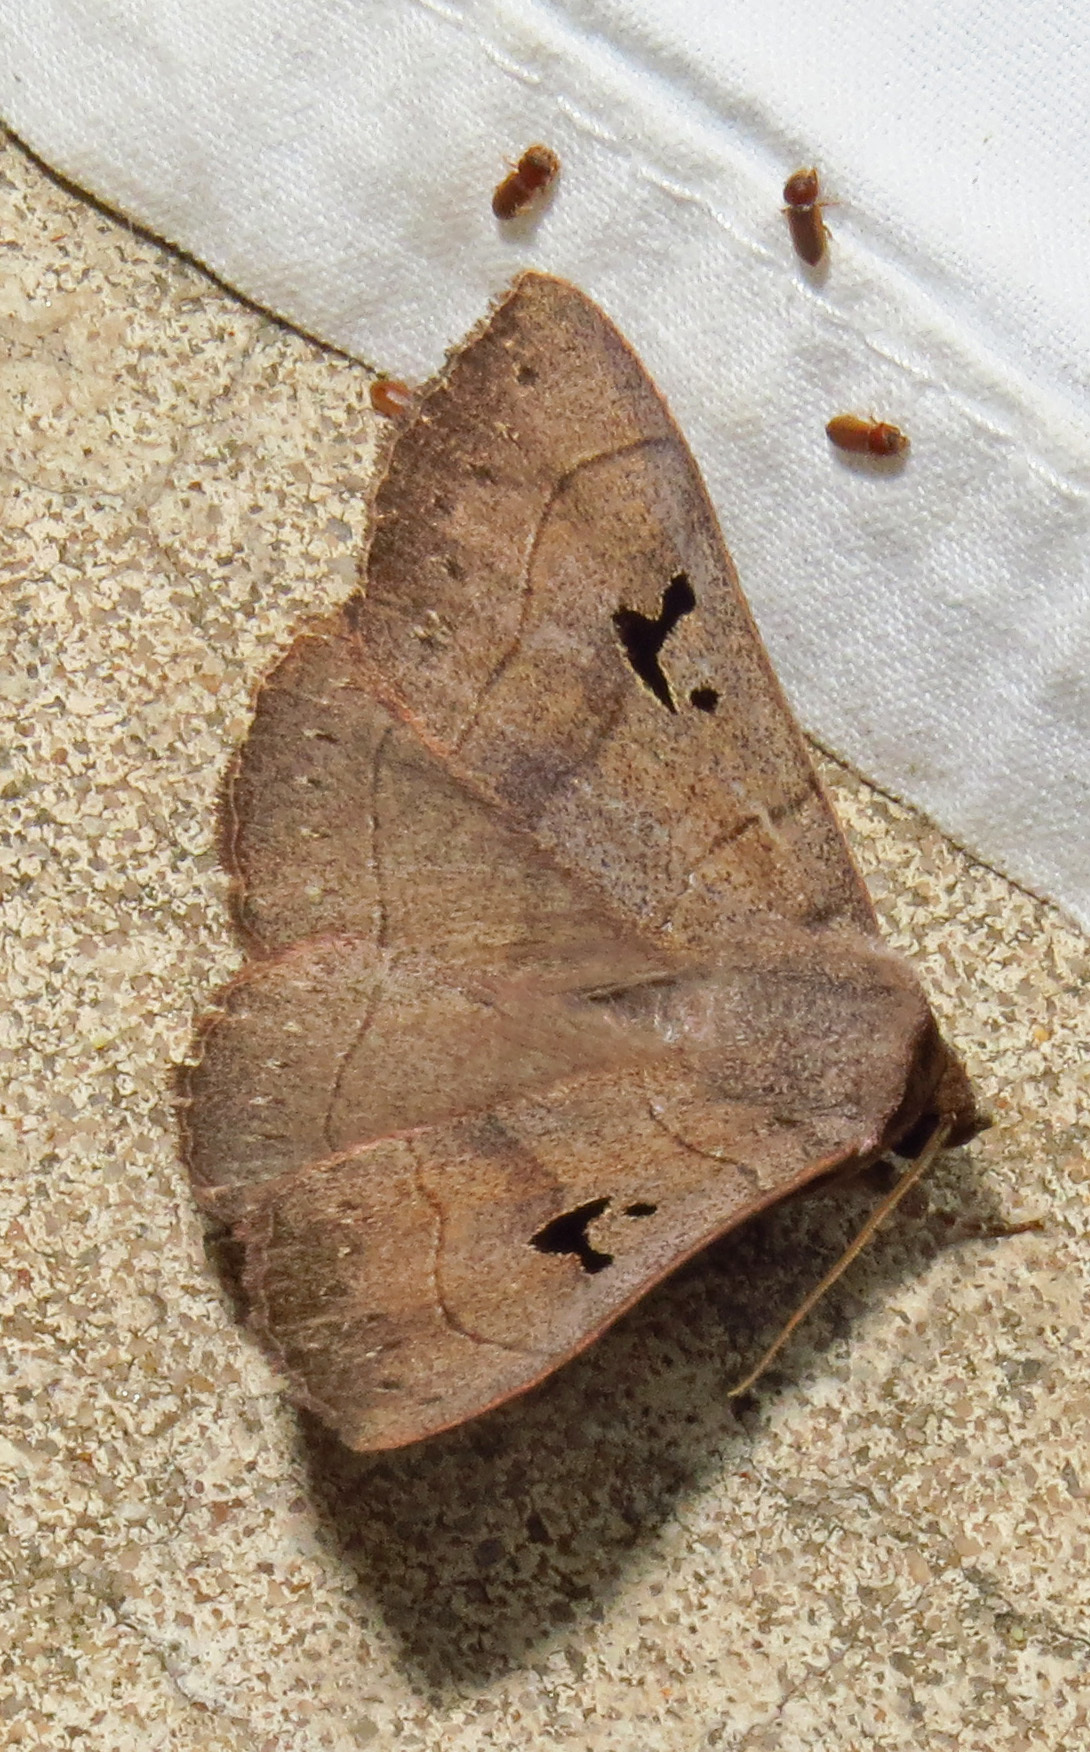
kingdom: Animalia
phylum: Arthropoda
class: Insecta
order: Lepidoptera
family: Erebidae
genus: Panopoda
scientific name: Panopoda carneicosta
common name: Brown panopoda moth
